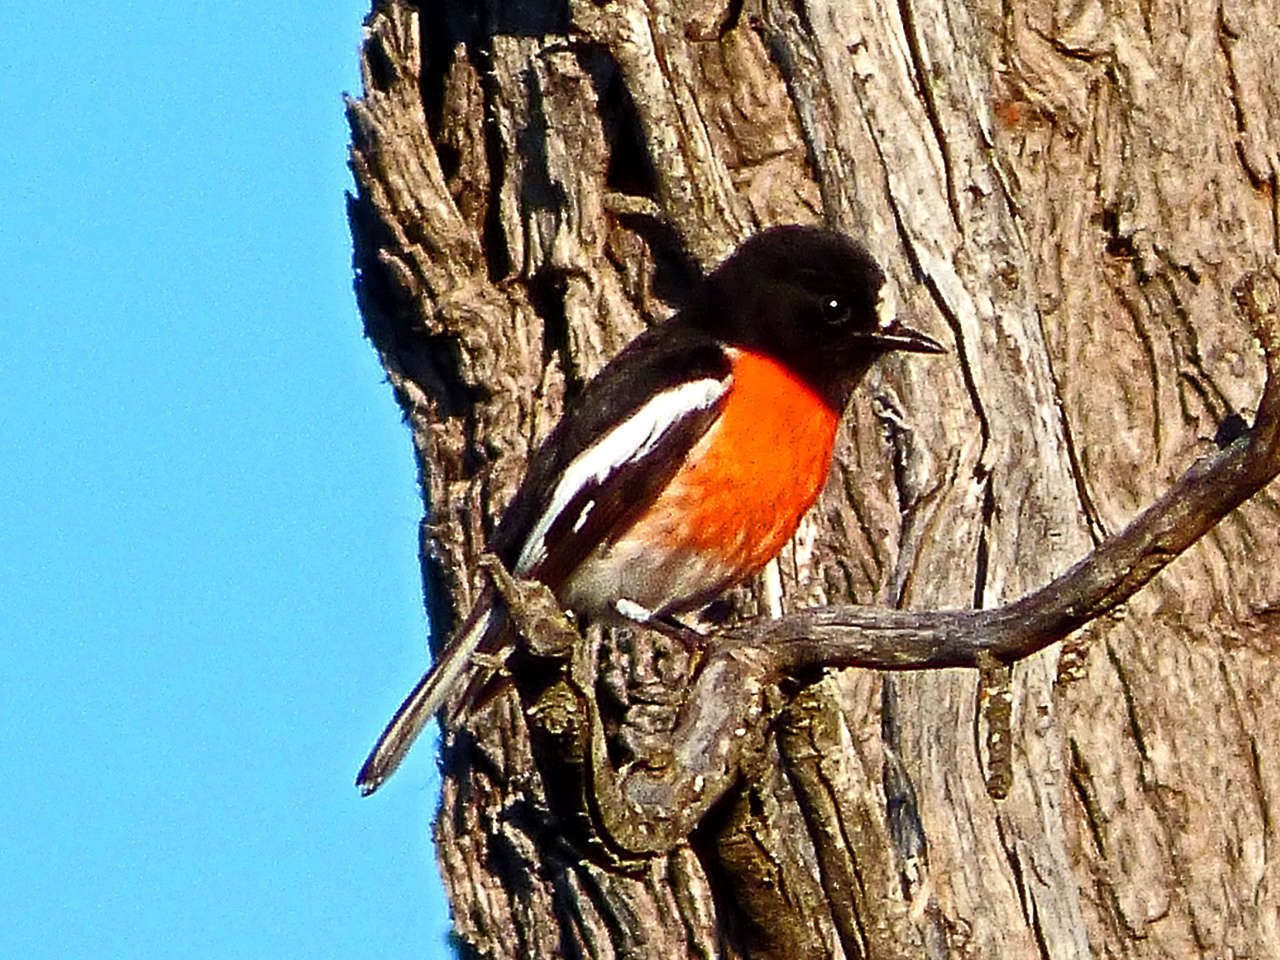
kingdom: Animalia
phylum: Chordata
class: Aves
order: Passeriformes
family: Petroicidae
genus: Petroica
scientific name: Petroica boodang
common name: Scarlet robin
